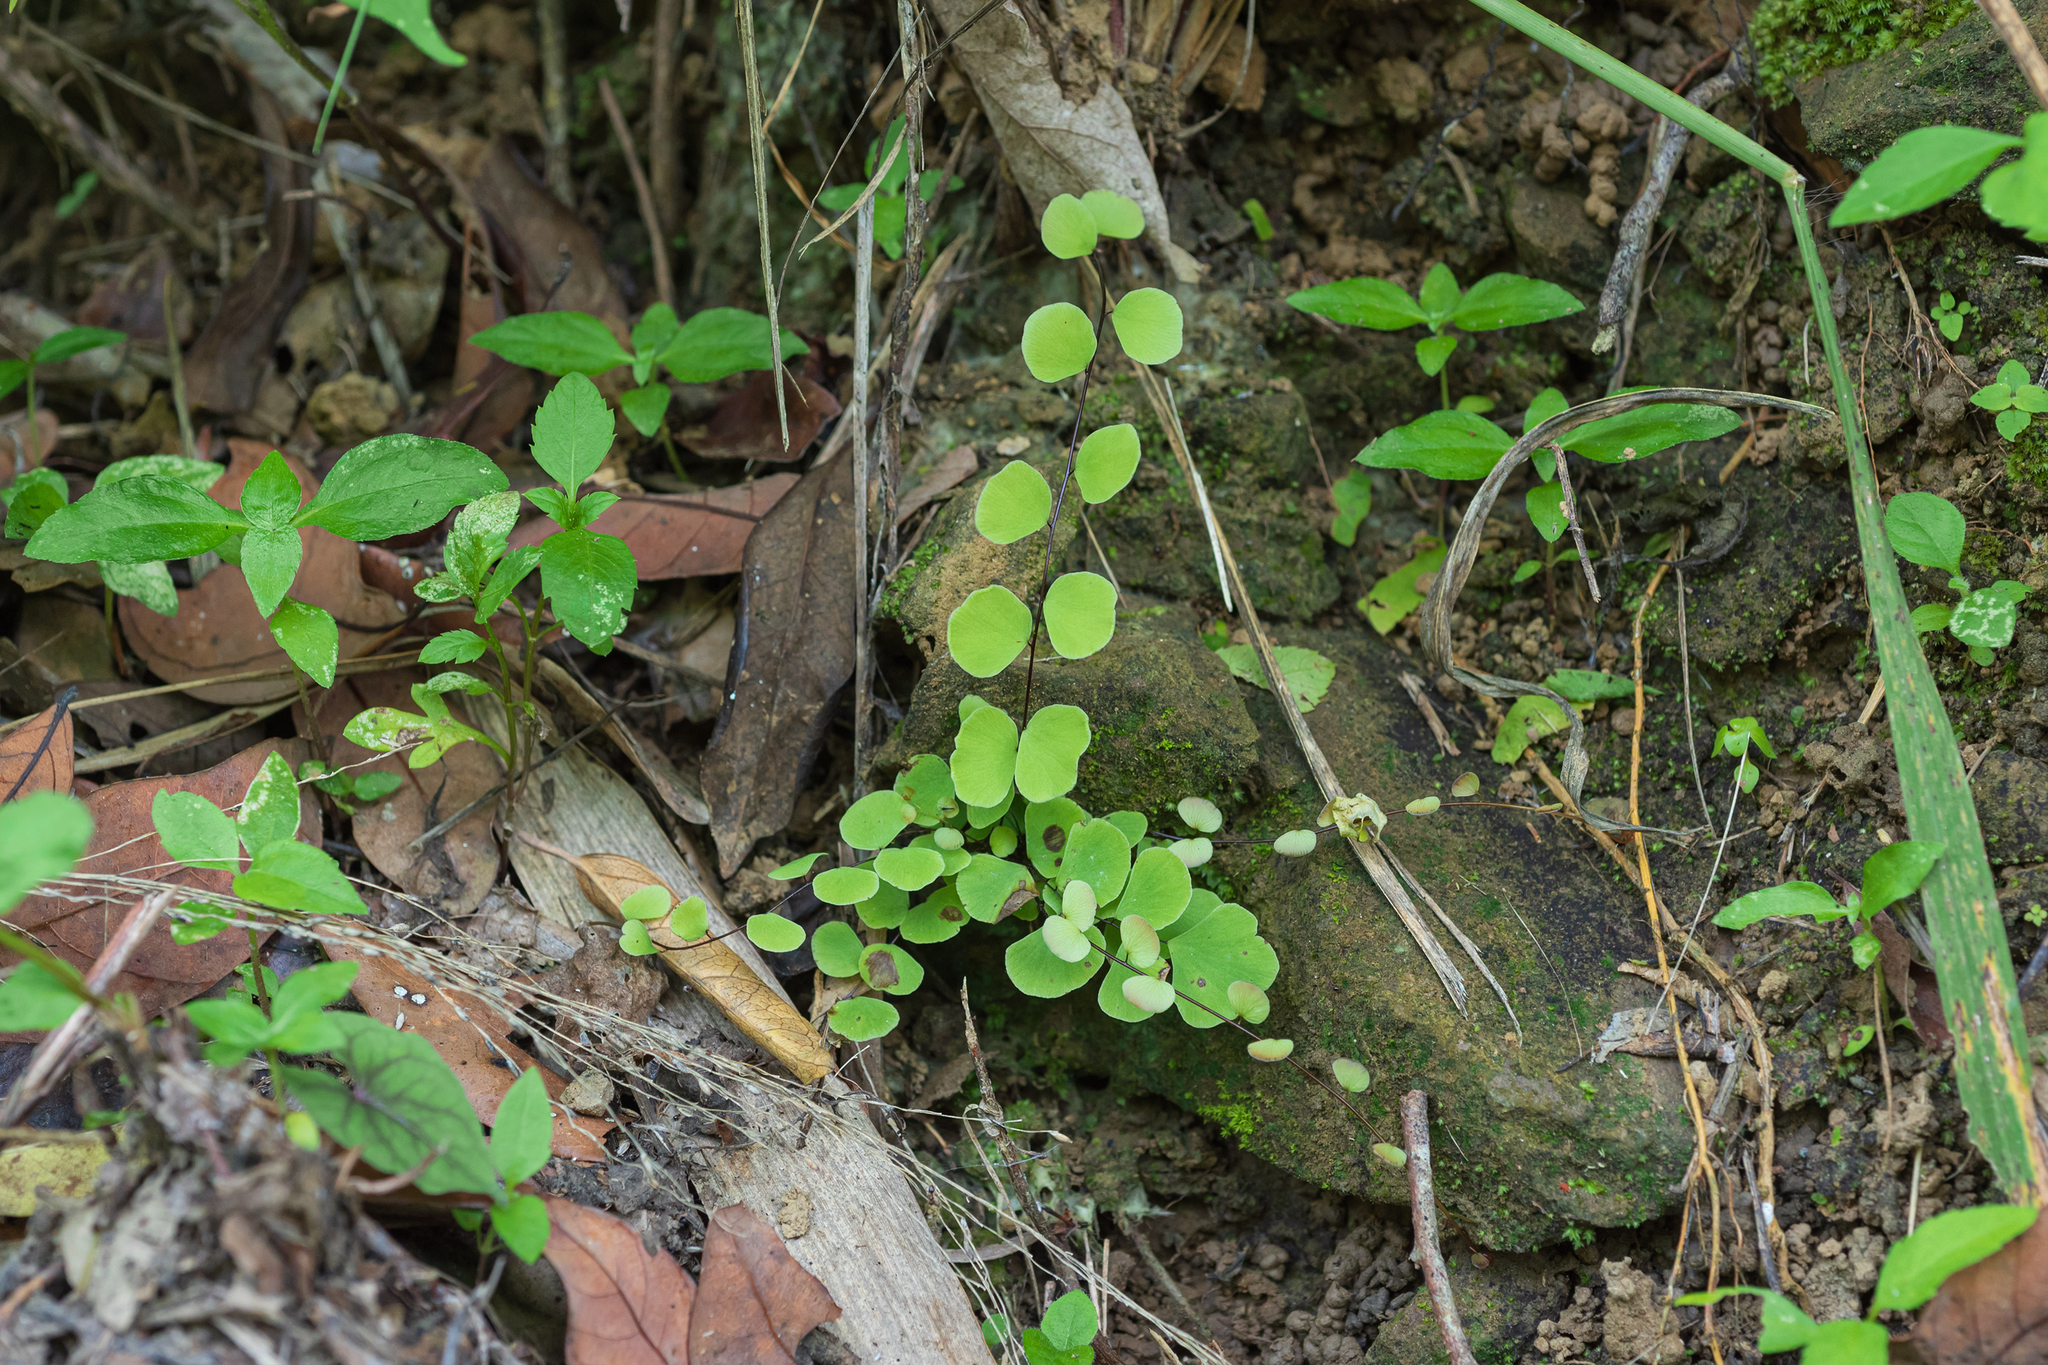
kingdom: Plantae
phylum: Tracheophyta
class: Polypodiopsida
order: Polypodiales
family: Pteridaceae
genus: Adiantum
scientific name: Adiantum capillus-junonis
